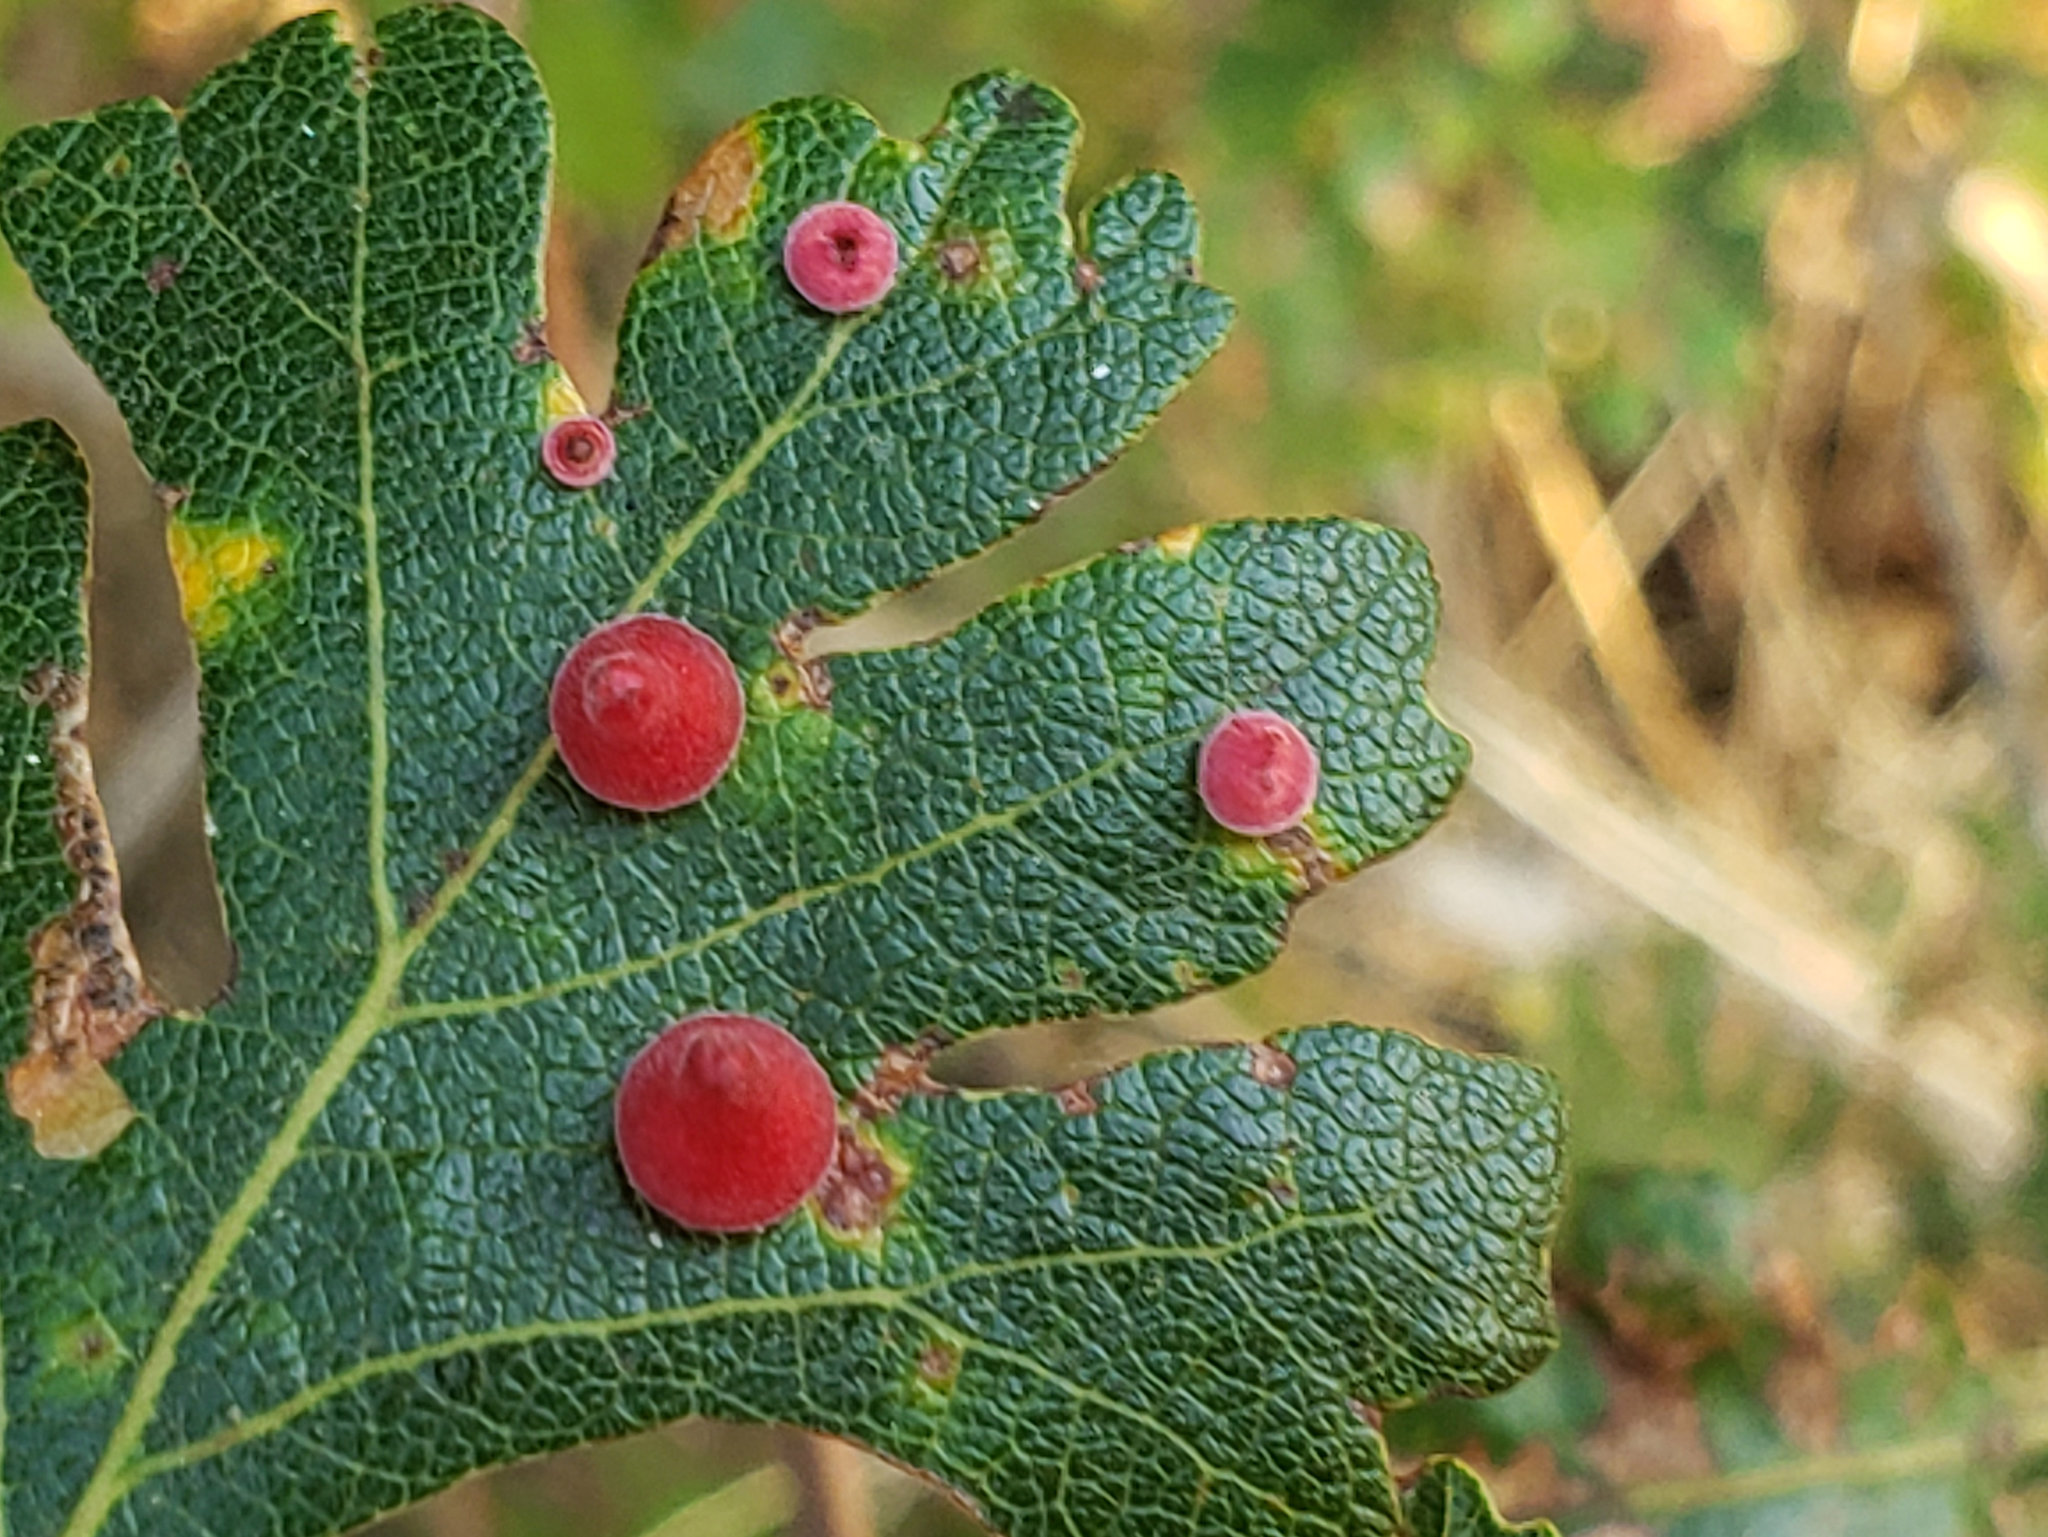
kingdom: Animalia
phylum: Arthropoda
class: Insecta
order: Hymenoptera
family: Cynipidae
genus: Andricus
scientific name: Andricus
